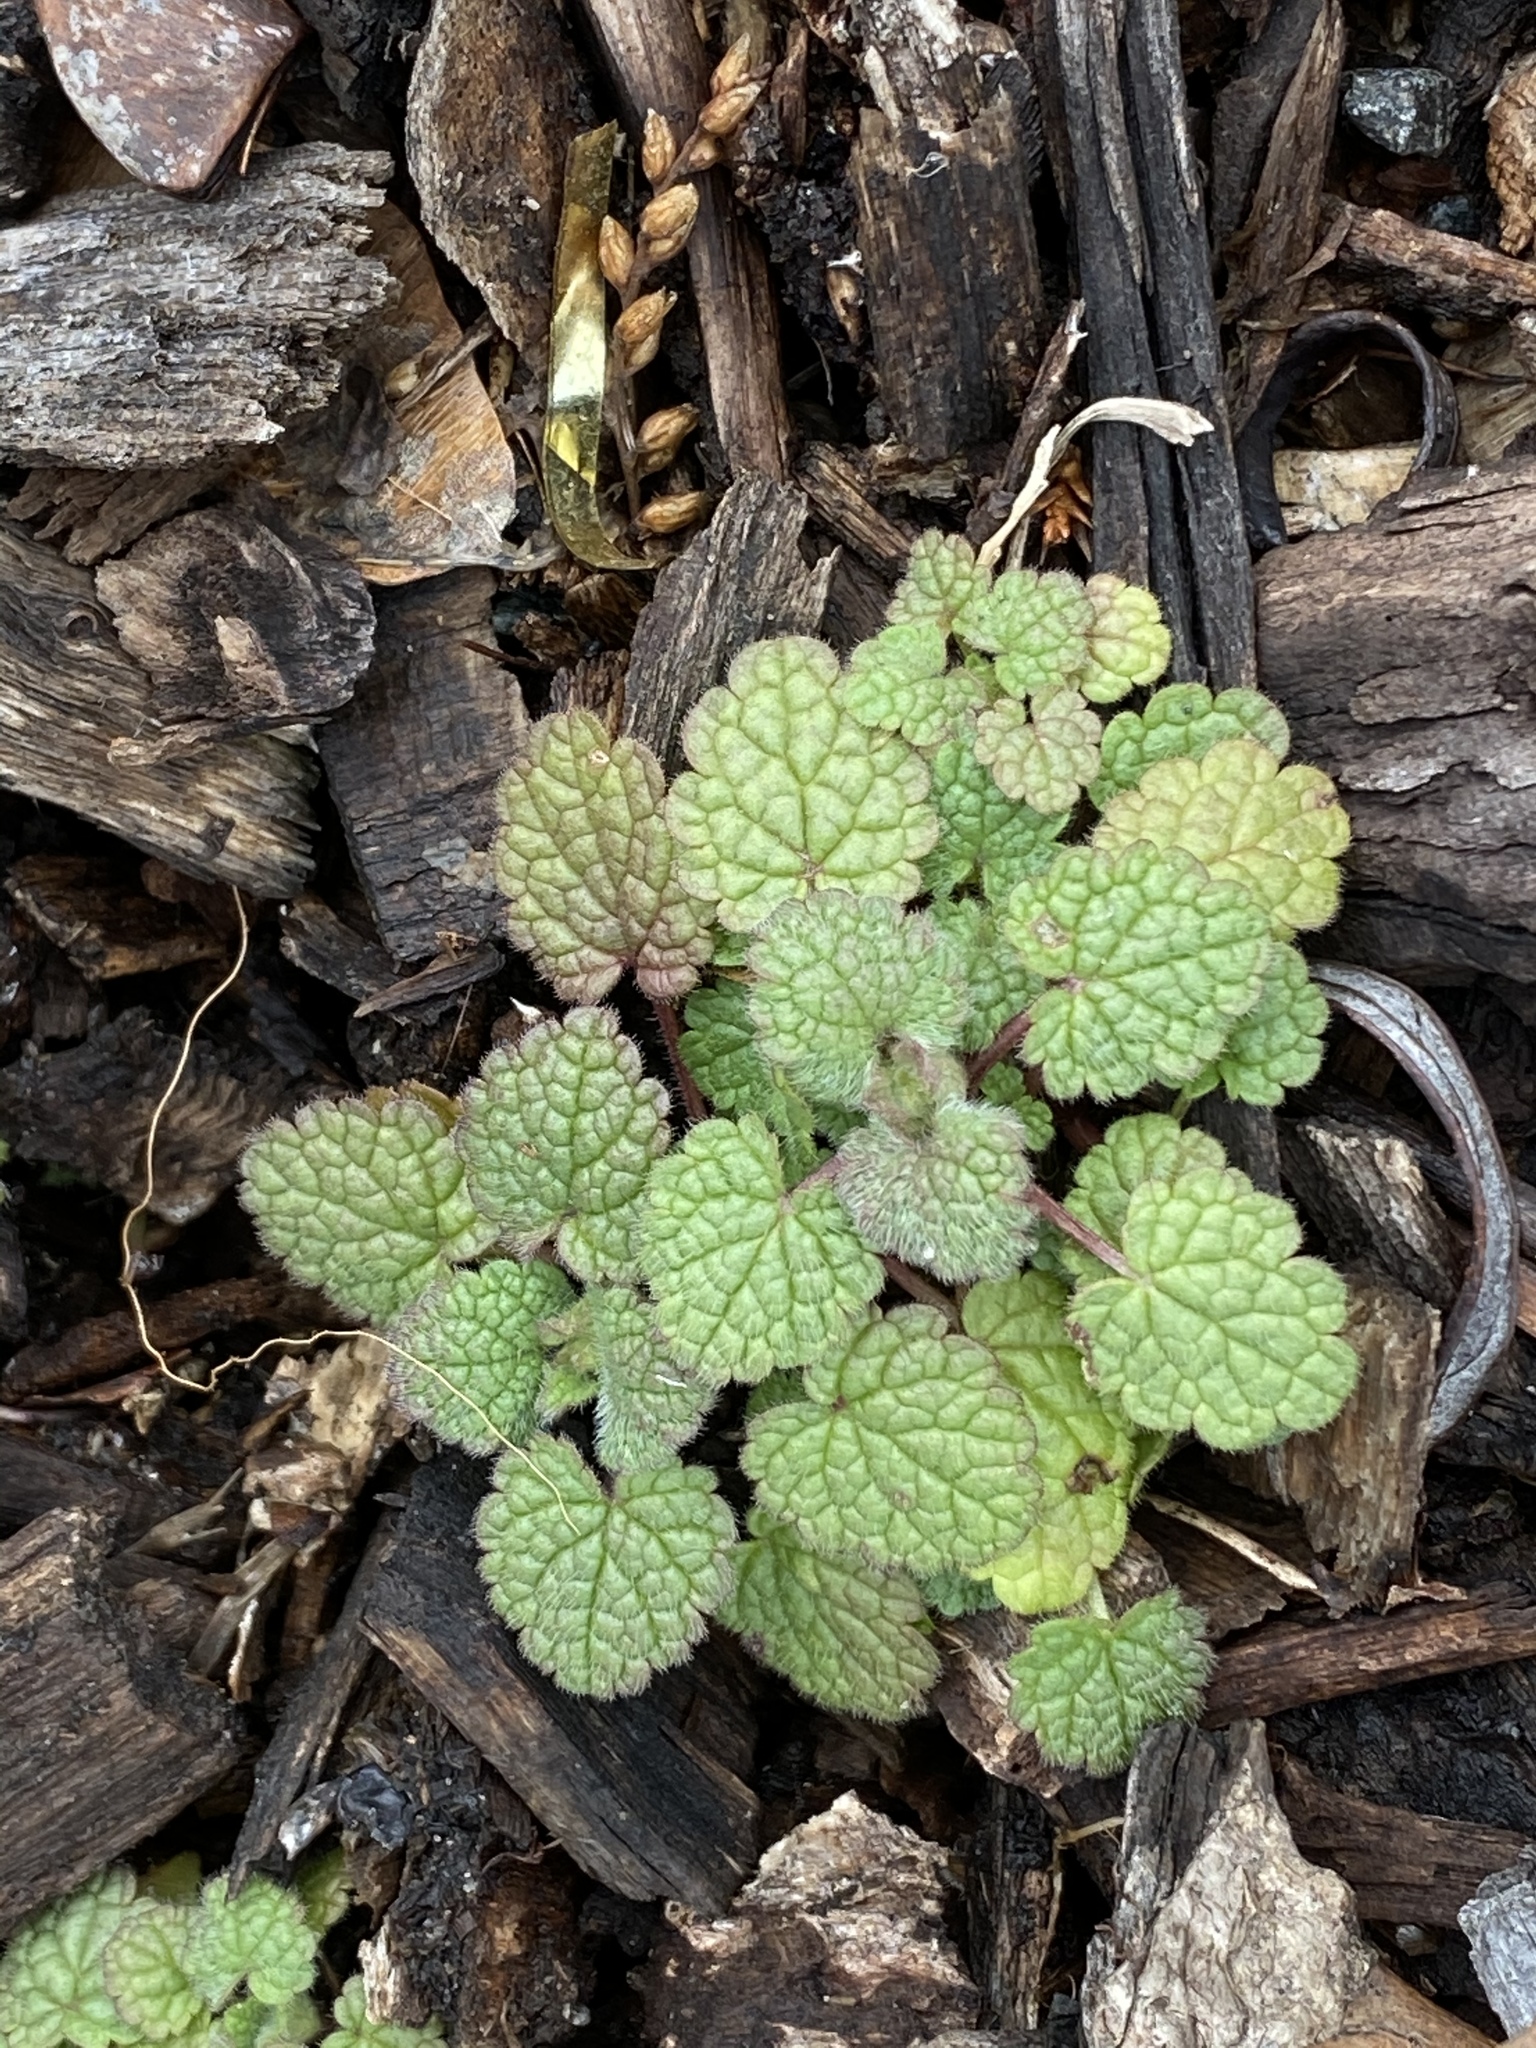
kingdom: Plantae
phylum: Tracheophyta
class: Magnoliopsida
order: Lamiales
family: Lamiaceae
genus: Lamium
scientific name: Lamium purpureum
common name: Red dead-nettle
